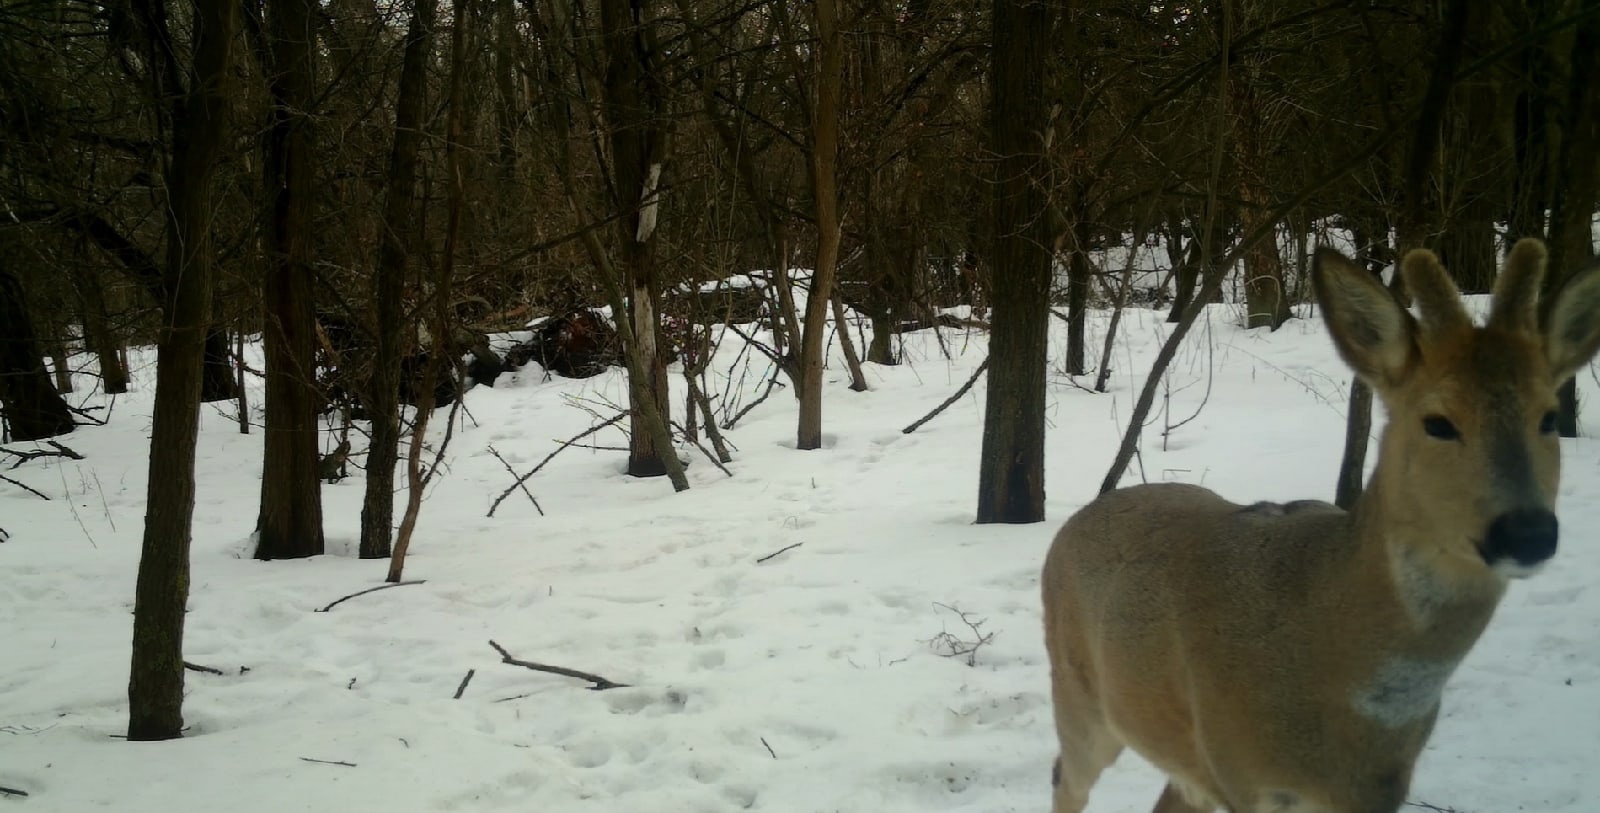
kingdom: Animalia
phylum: Chordata
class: Mammalia
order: Artiodactyla
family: Cervidae
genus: Capreolus
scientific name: Capreolus pygargus
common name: Siberian roe
